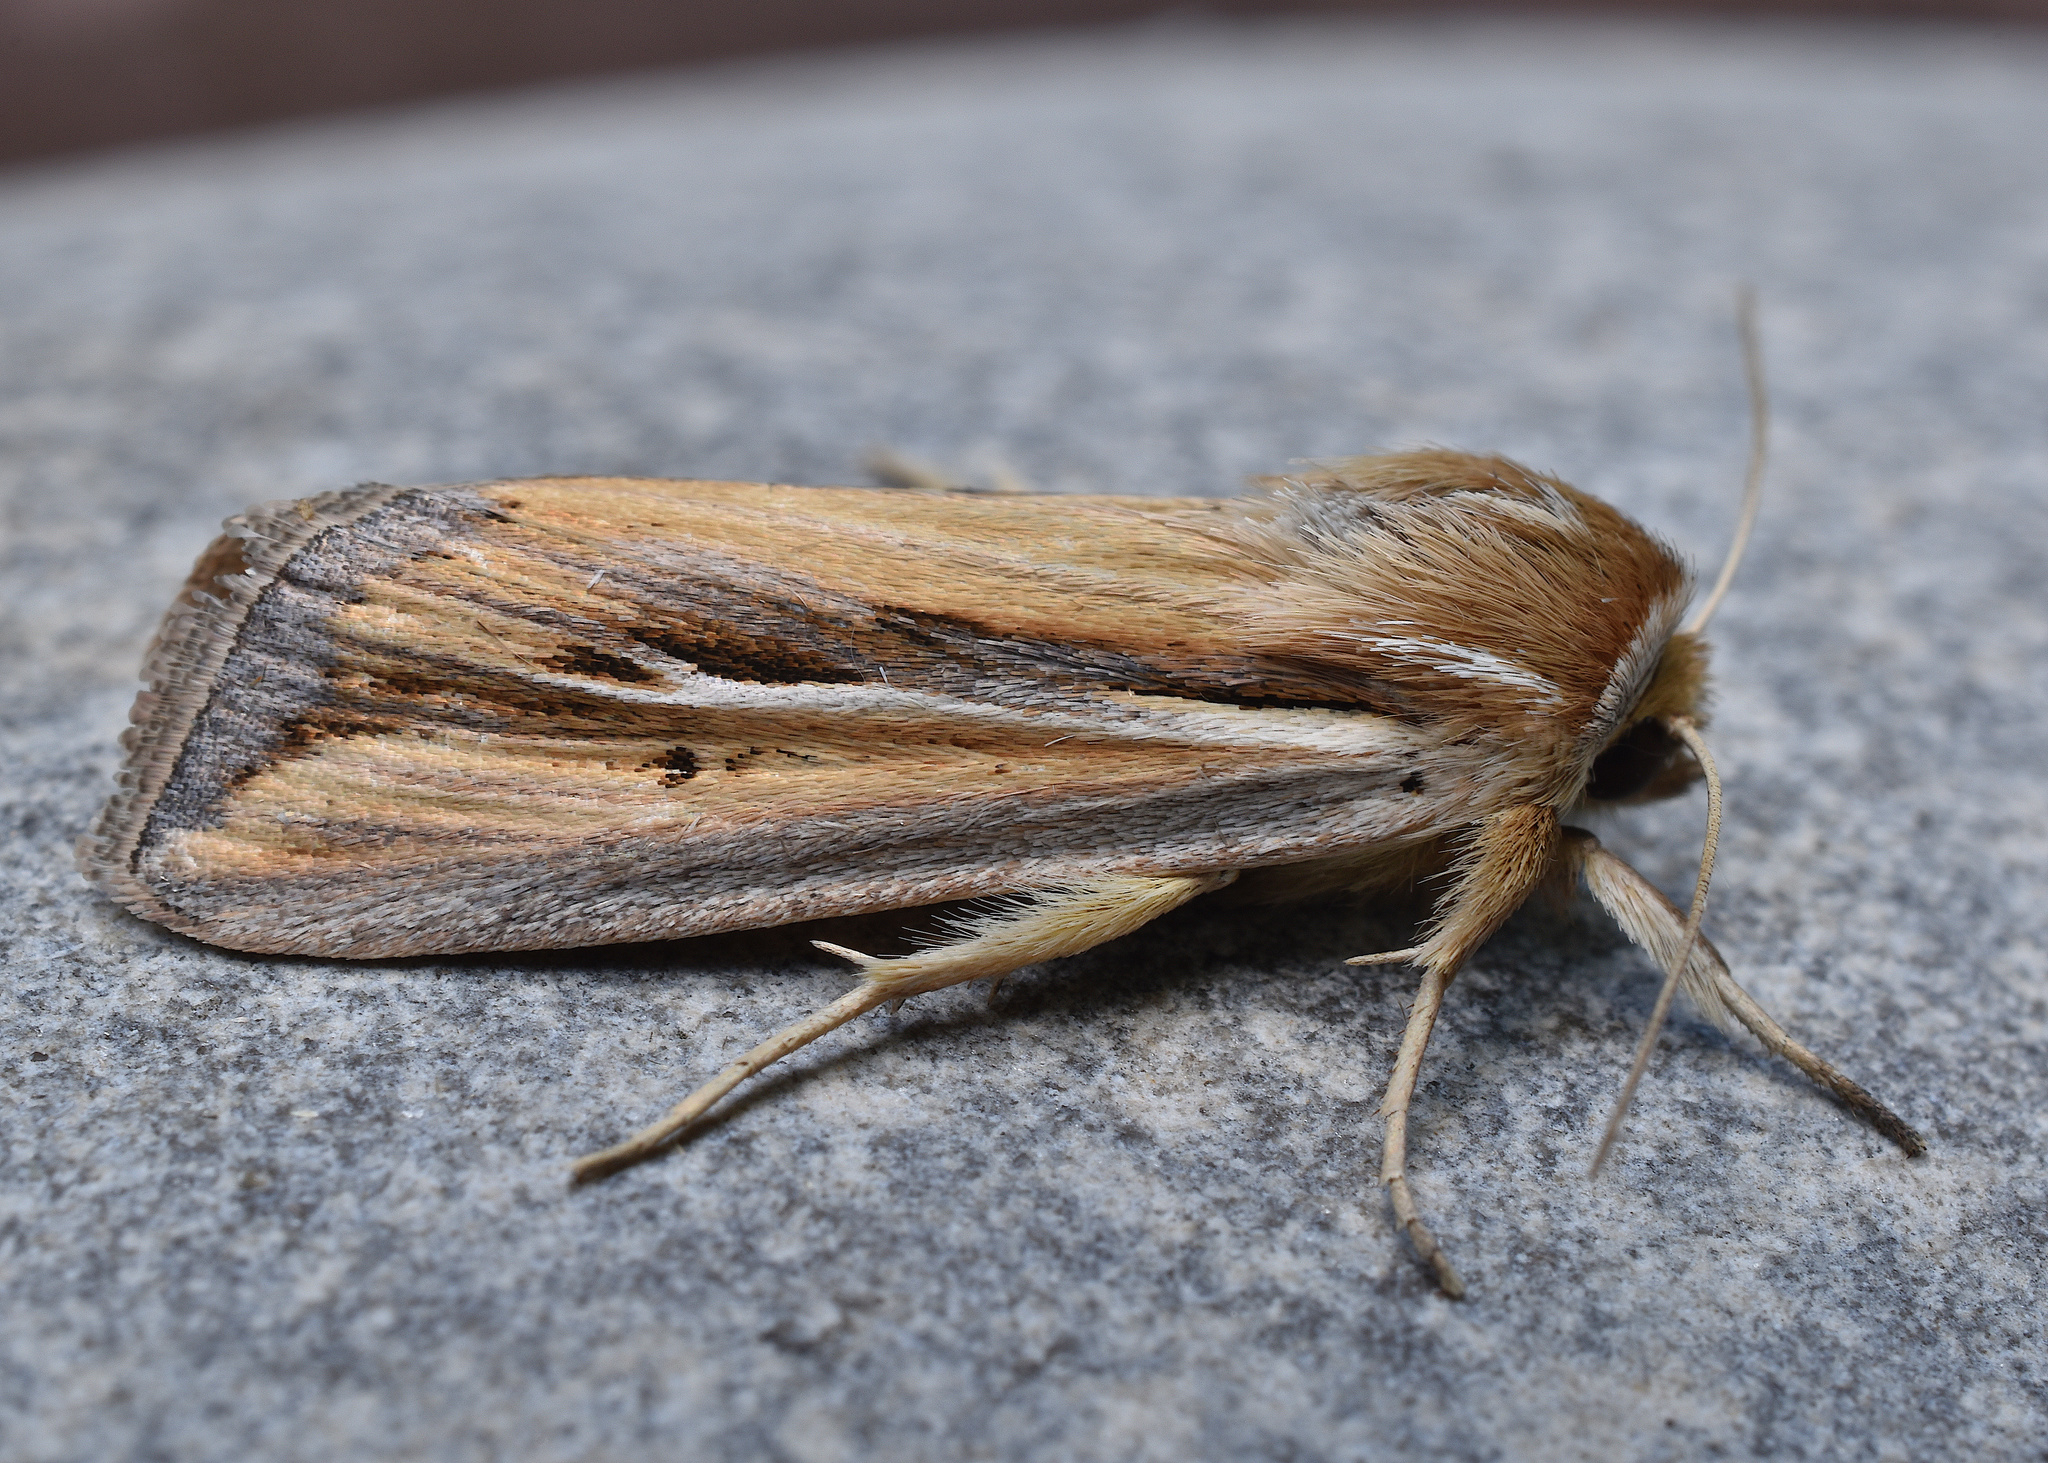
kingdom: Animalia
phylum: Arthropoda
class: Insecta
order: Lepidoptera
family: Noctuidae
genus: Dargida
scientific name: Dargida diffusa
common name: Wheat head armyworm
